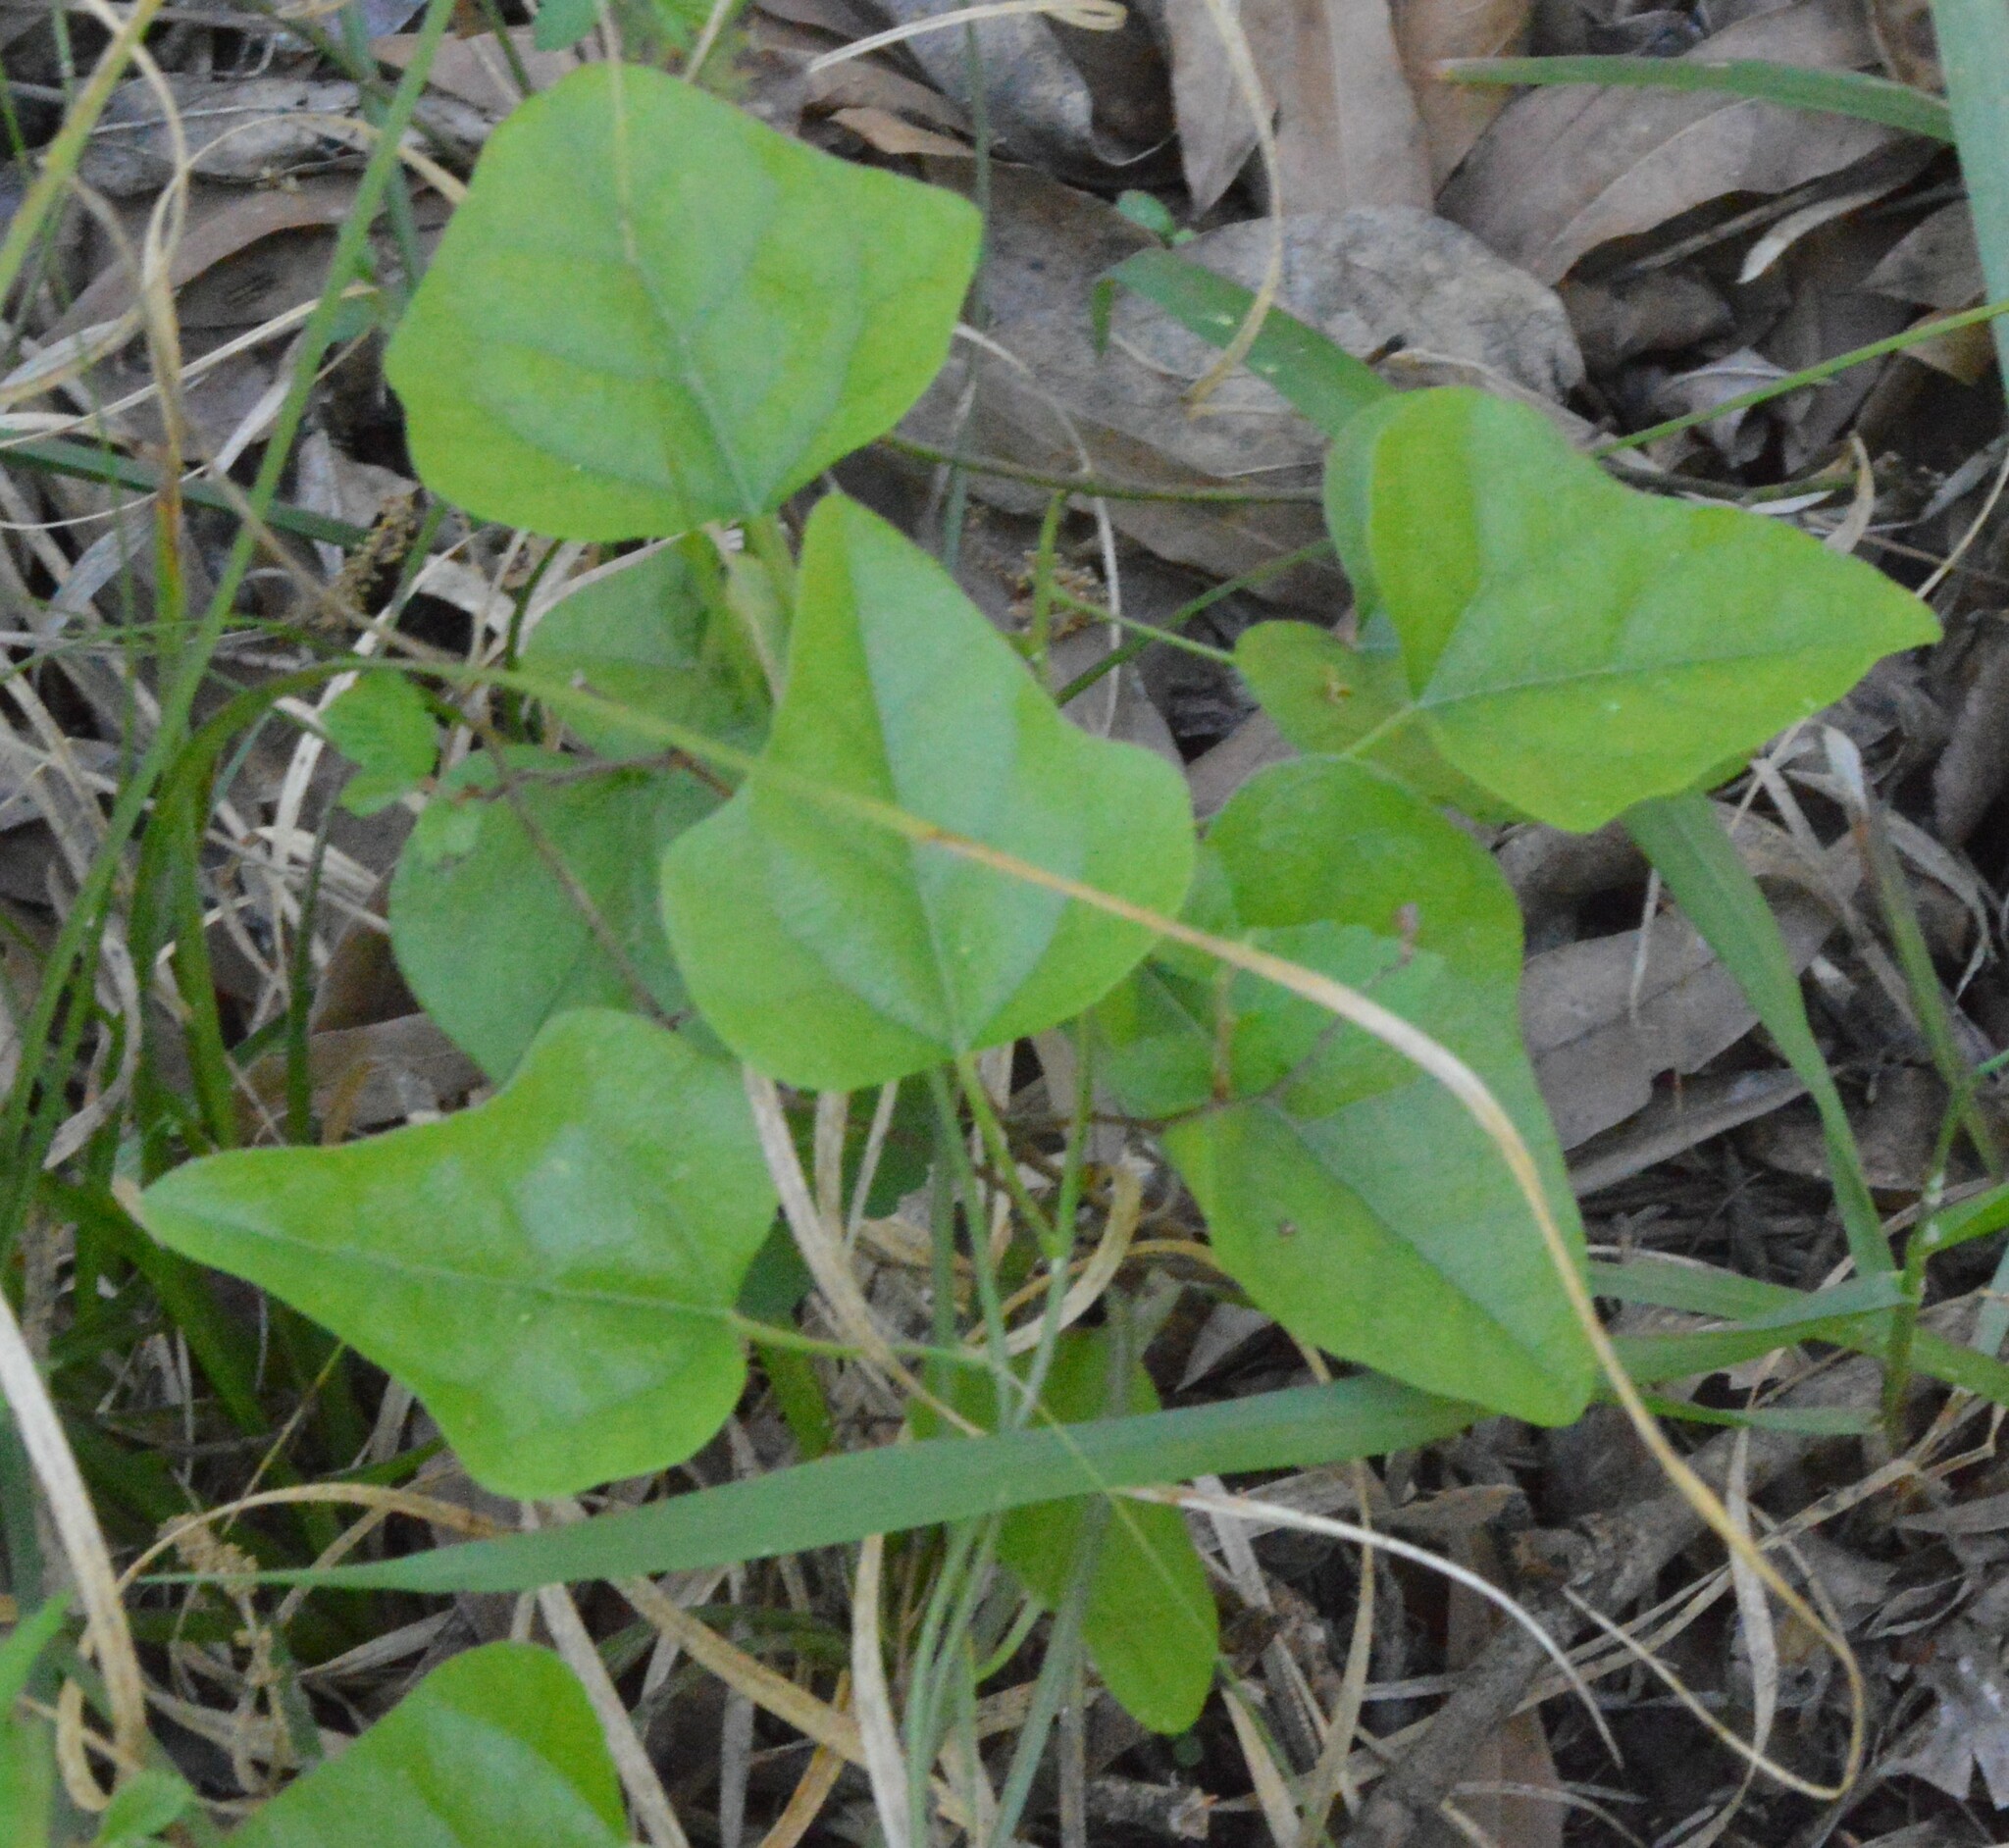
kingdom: Plantae
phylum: Tracheophyta
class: Magnoliopsida
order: Ranunculales
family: Menispermaceae
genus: Cocculus
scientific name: Cocculus carolinus
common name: Carolina moonseed
